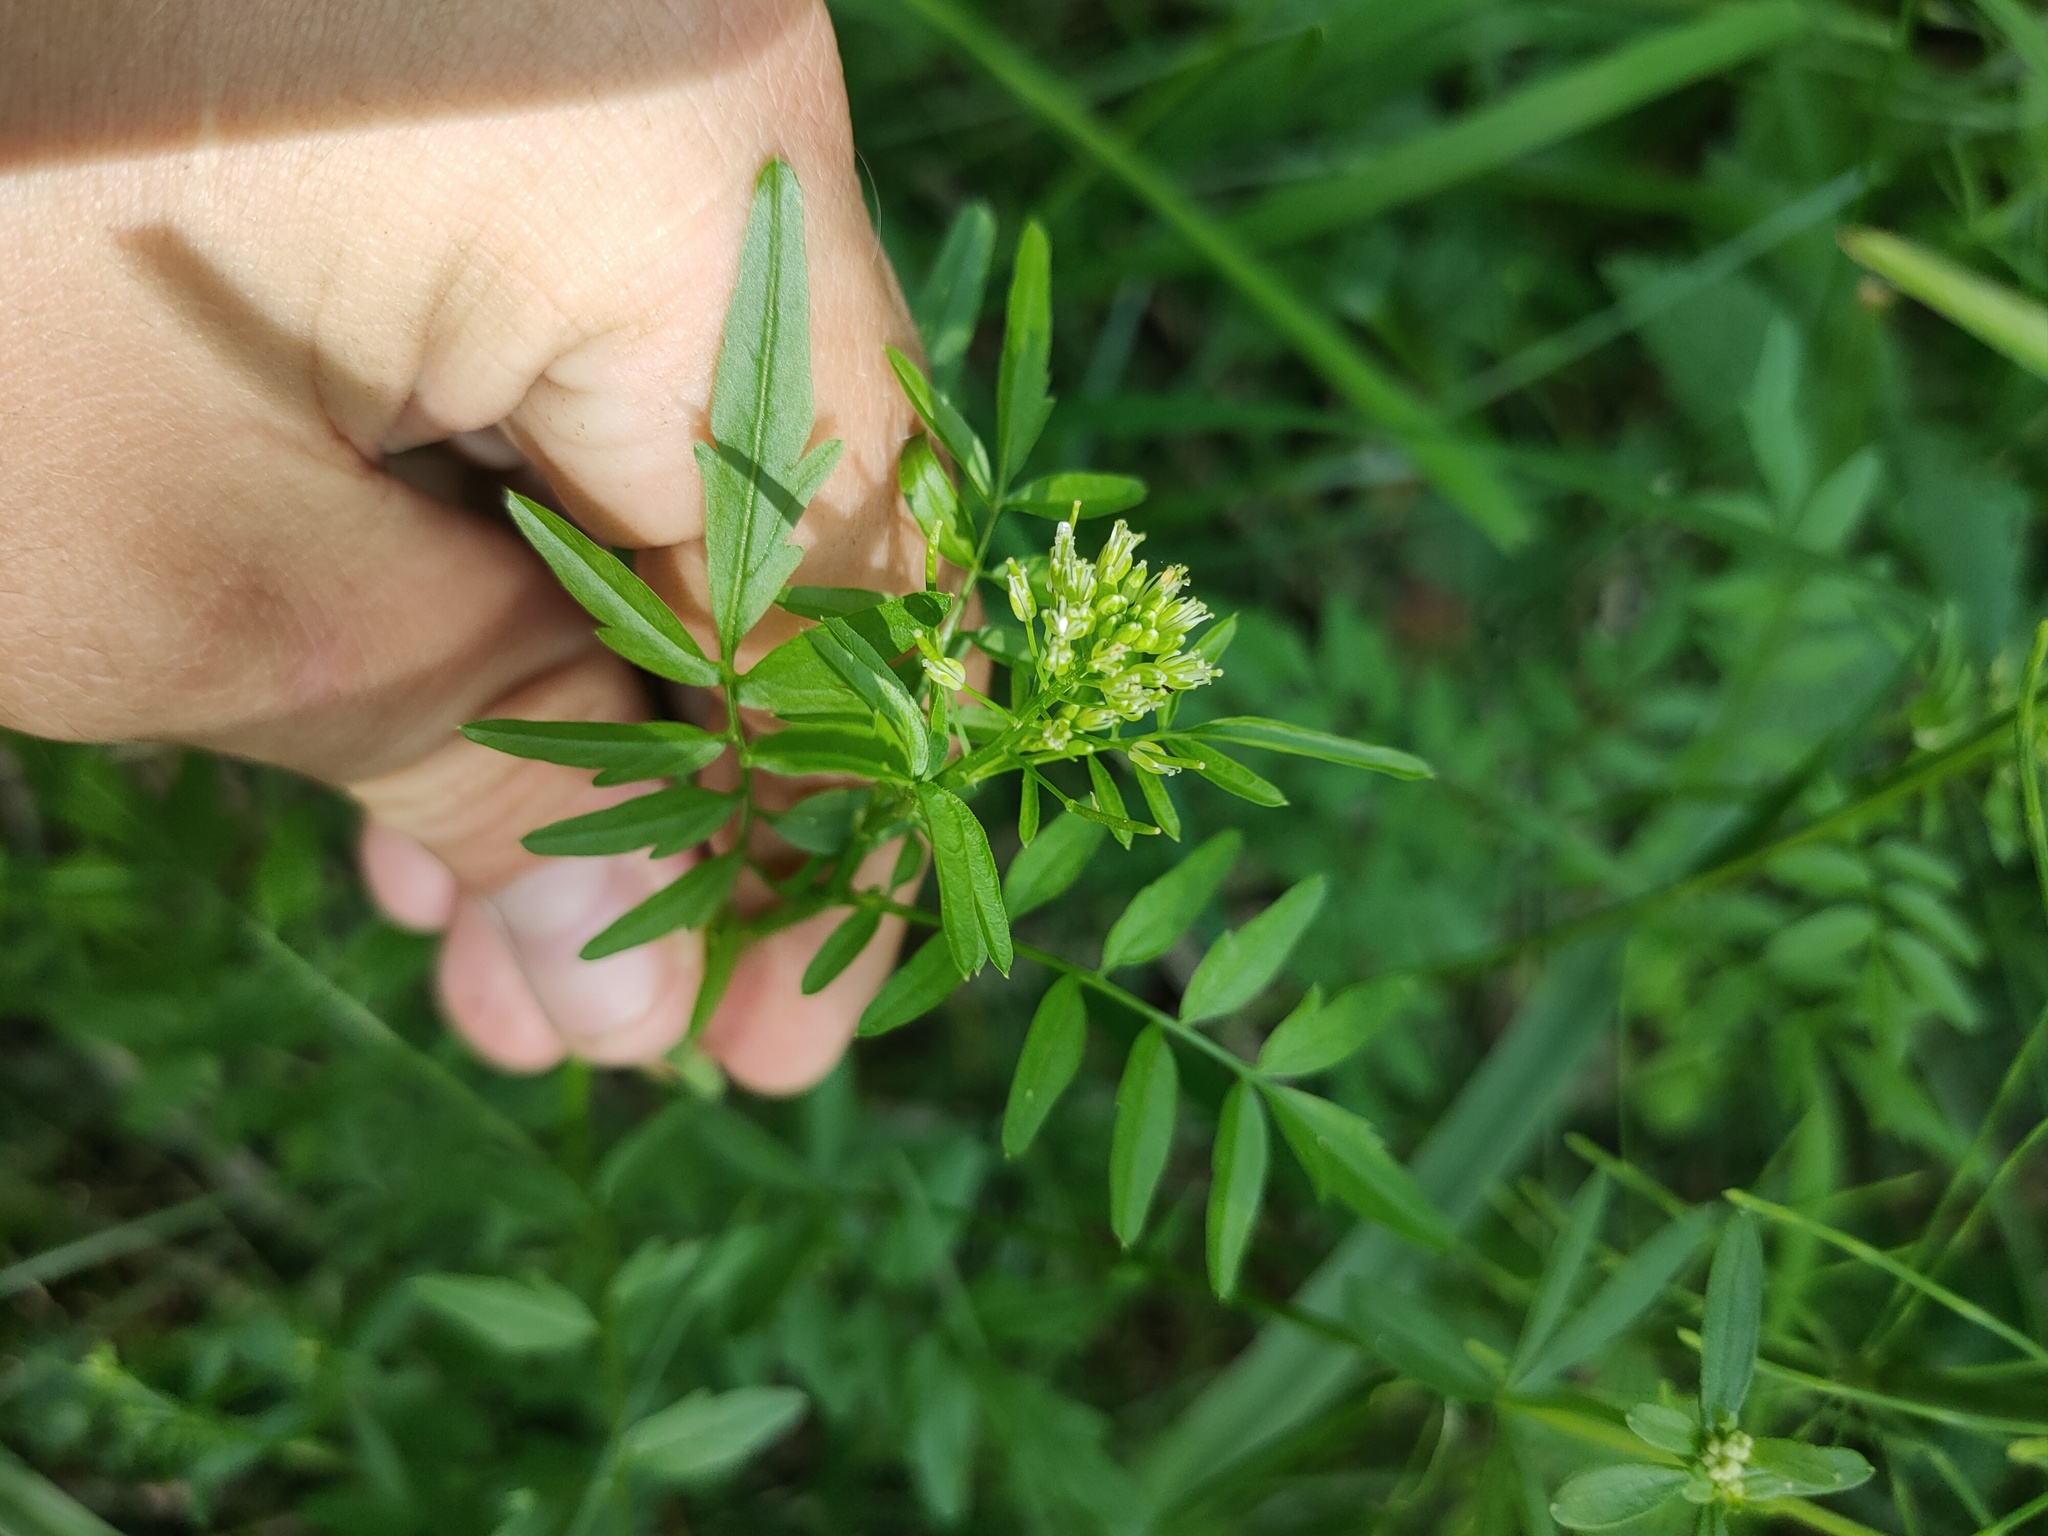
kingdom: Plantae
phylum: Tracheophyta
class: Magnoliopsida
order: Brassicales
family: Brassicaceae
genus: Cardamine
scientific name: Cardamine impatiens
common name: Narrow-leaved bitter-cress
